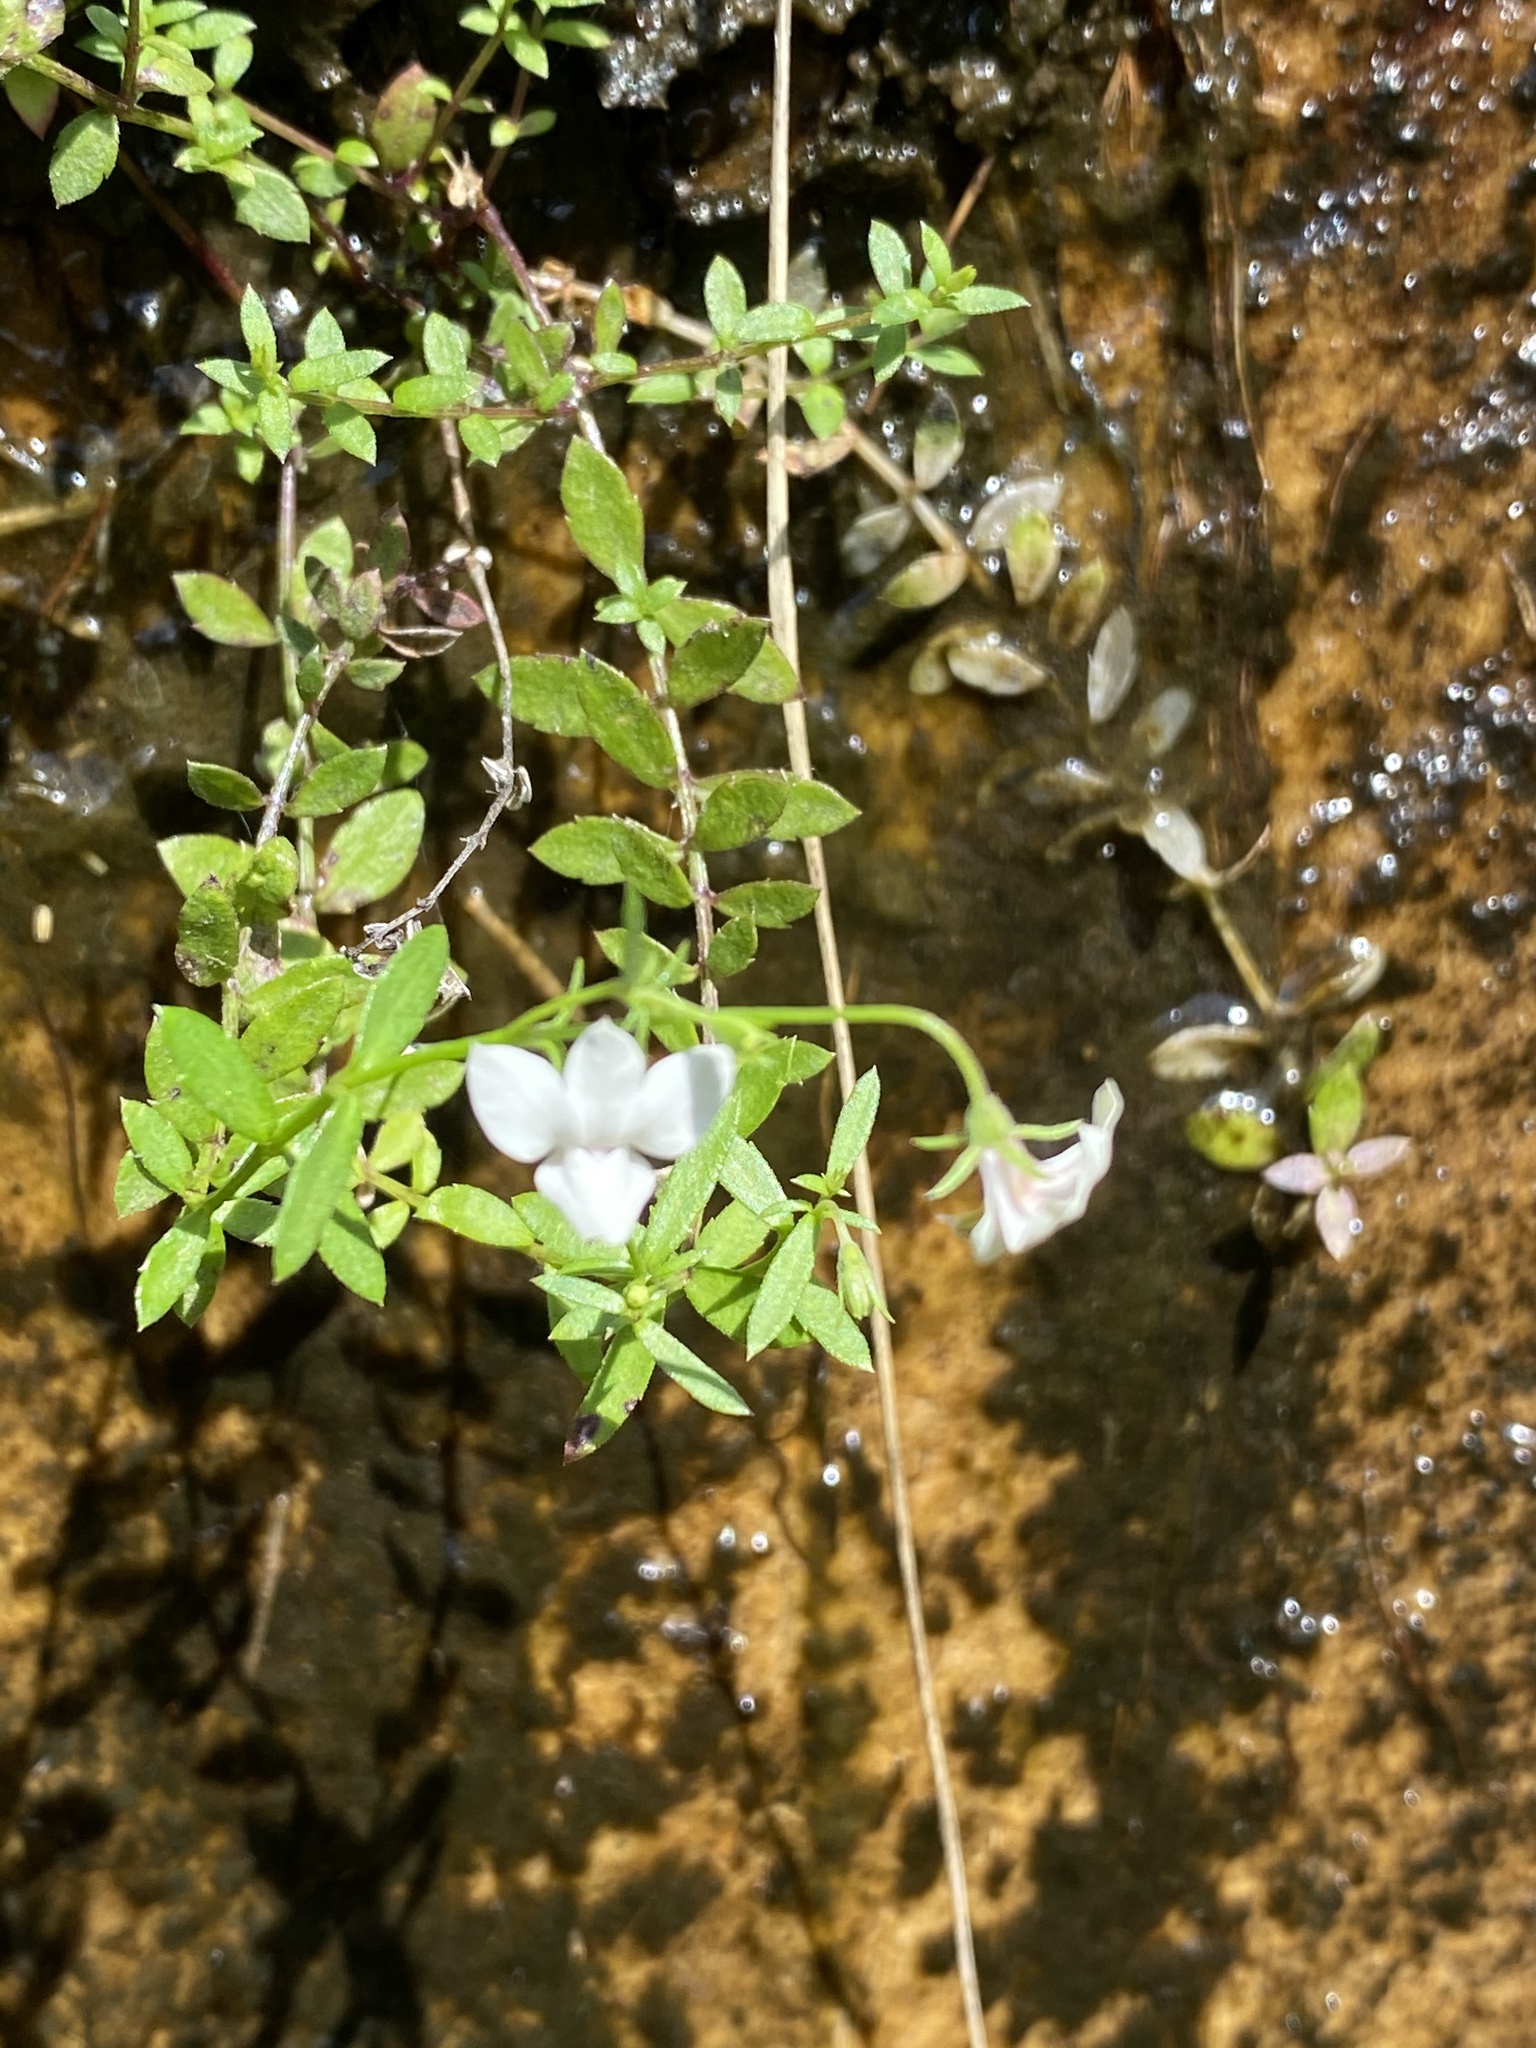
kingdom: Plantae
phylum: Tracheophyta
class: Magnoliopsida
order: Asterales
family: Campanulaceae
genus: Monopsis
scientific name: Monopsis alba
